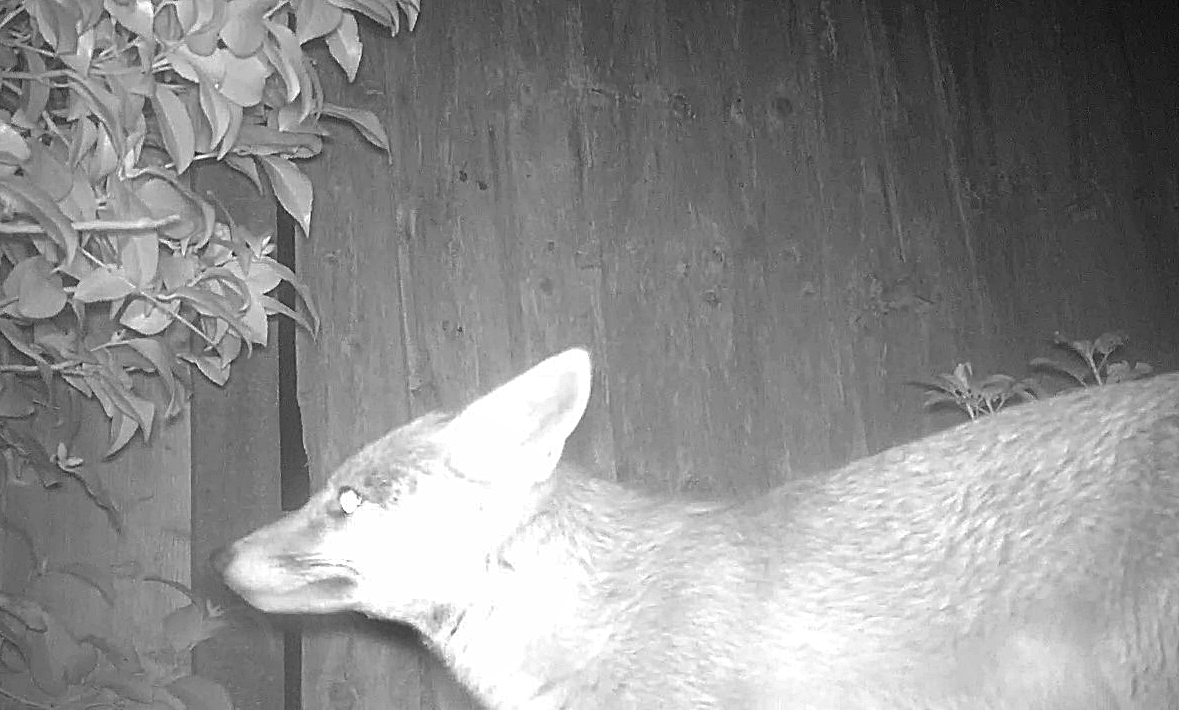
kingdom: Animalia
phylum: Chordata
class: Mammalia
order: Carnivora
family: Canidae
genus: Vulpes
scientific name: Vulpes vulpes
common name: Red fox
